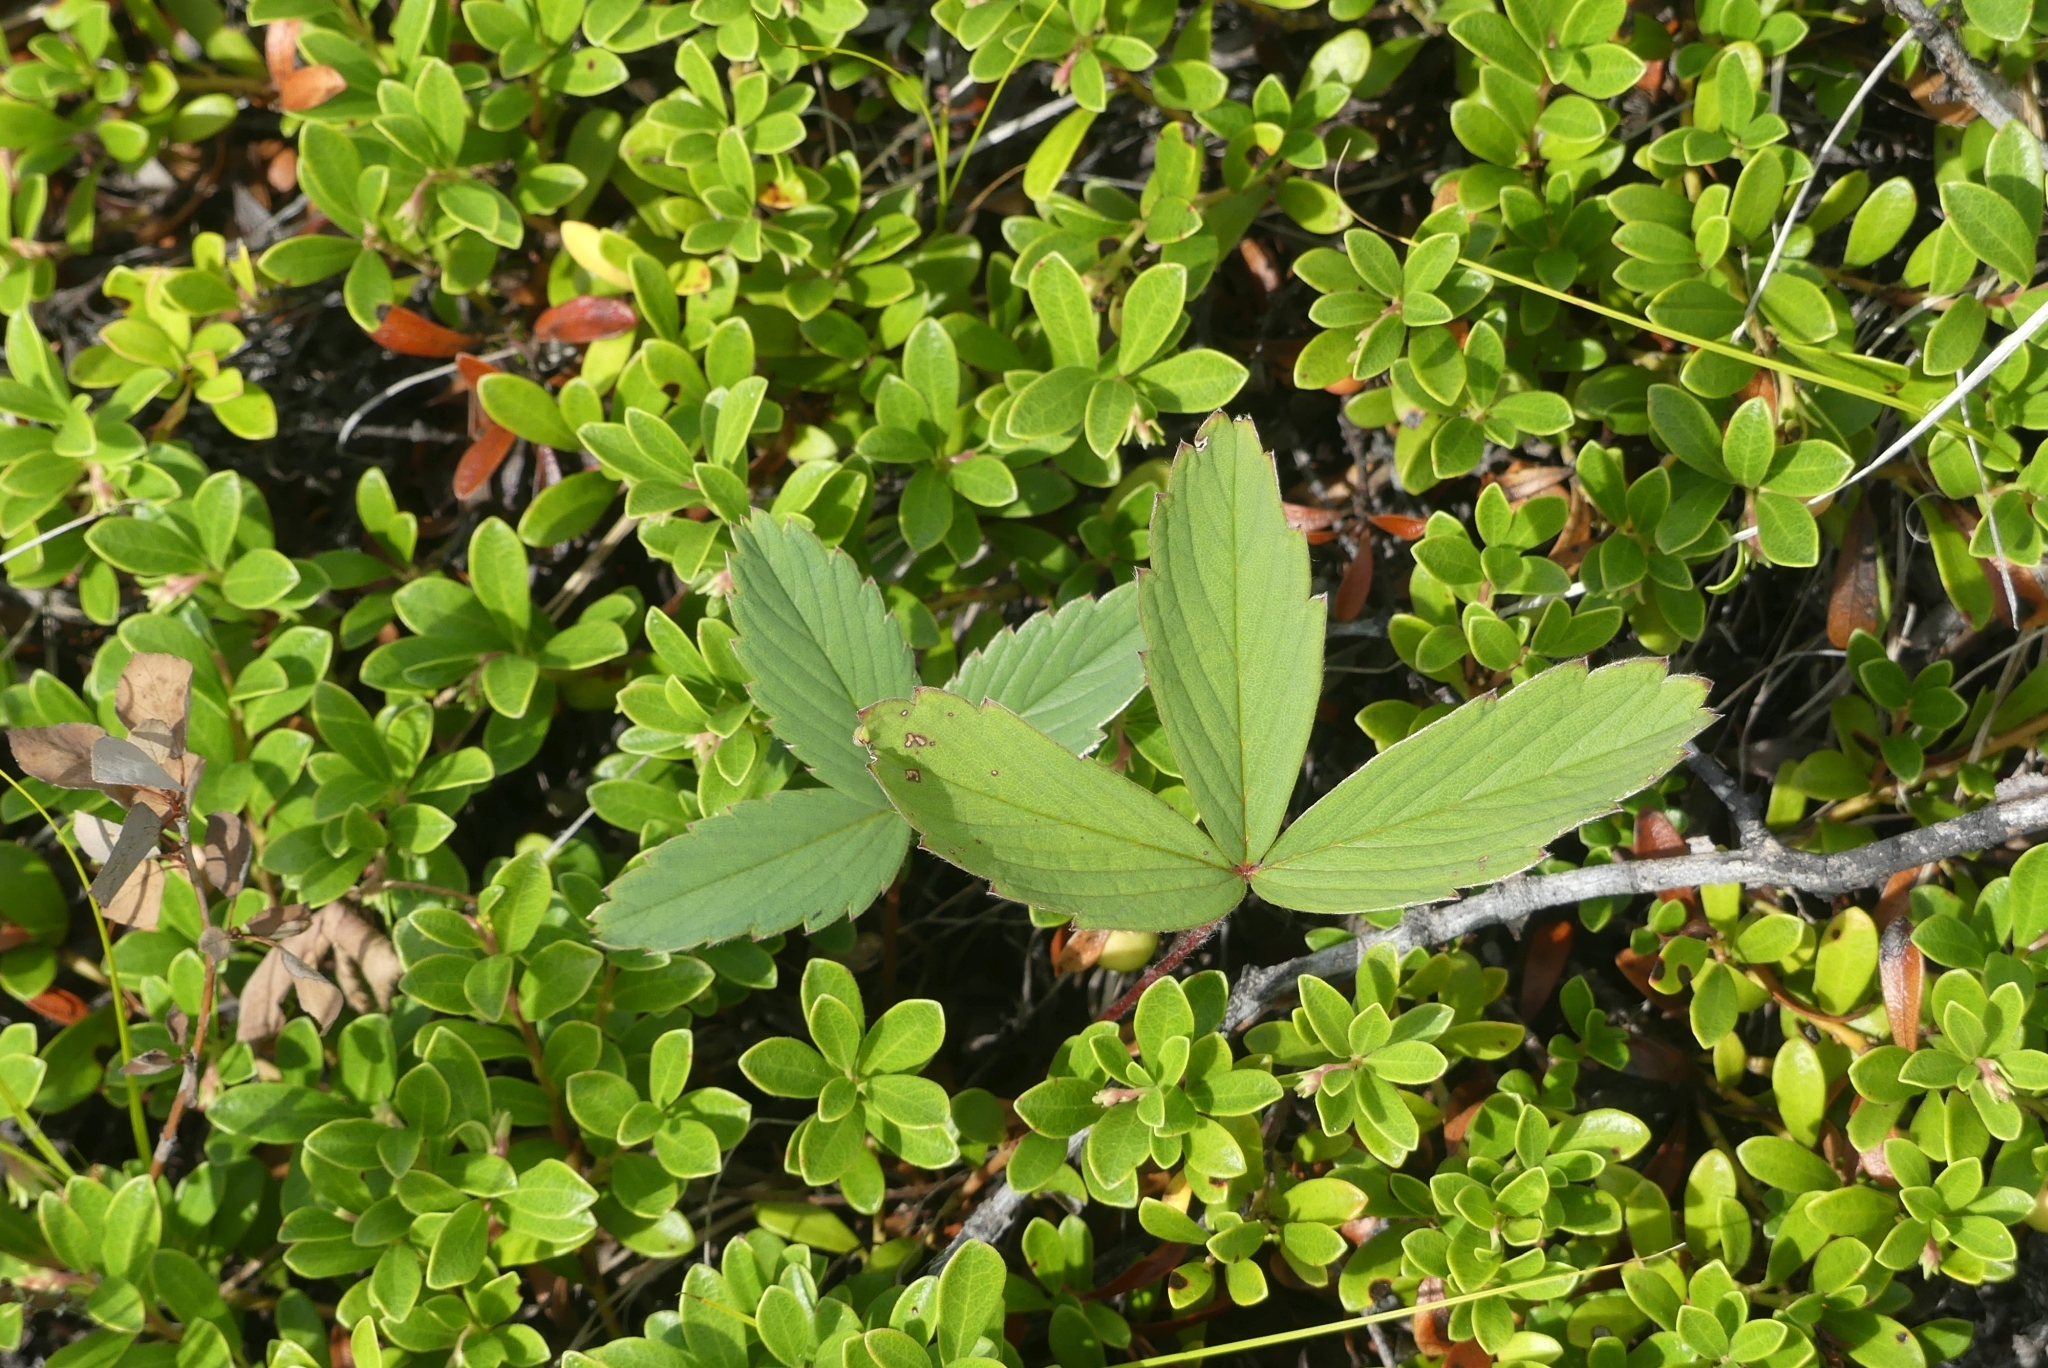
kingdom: Plantae
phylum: Tracheophyta
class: Magnoliopsida
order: Rosales
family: Rosaceae
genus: Fragaria
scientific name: Fragaria virginiana
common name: Thickleaved wild strawberry
